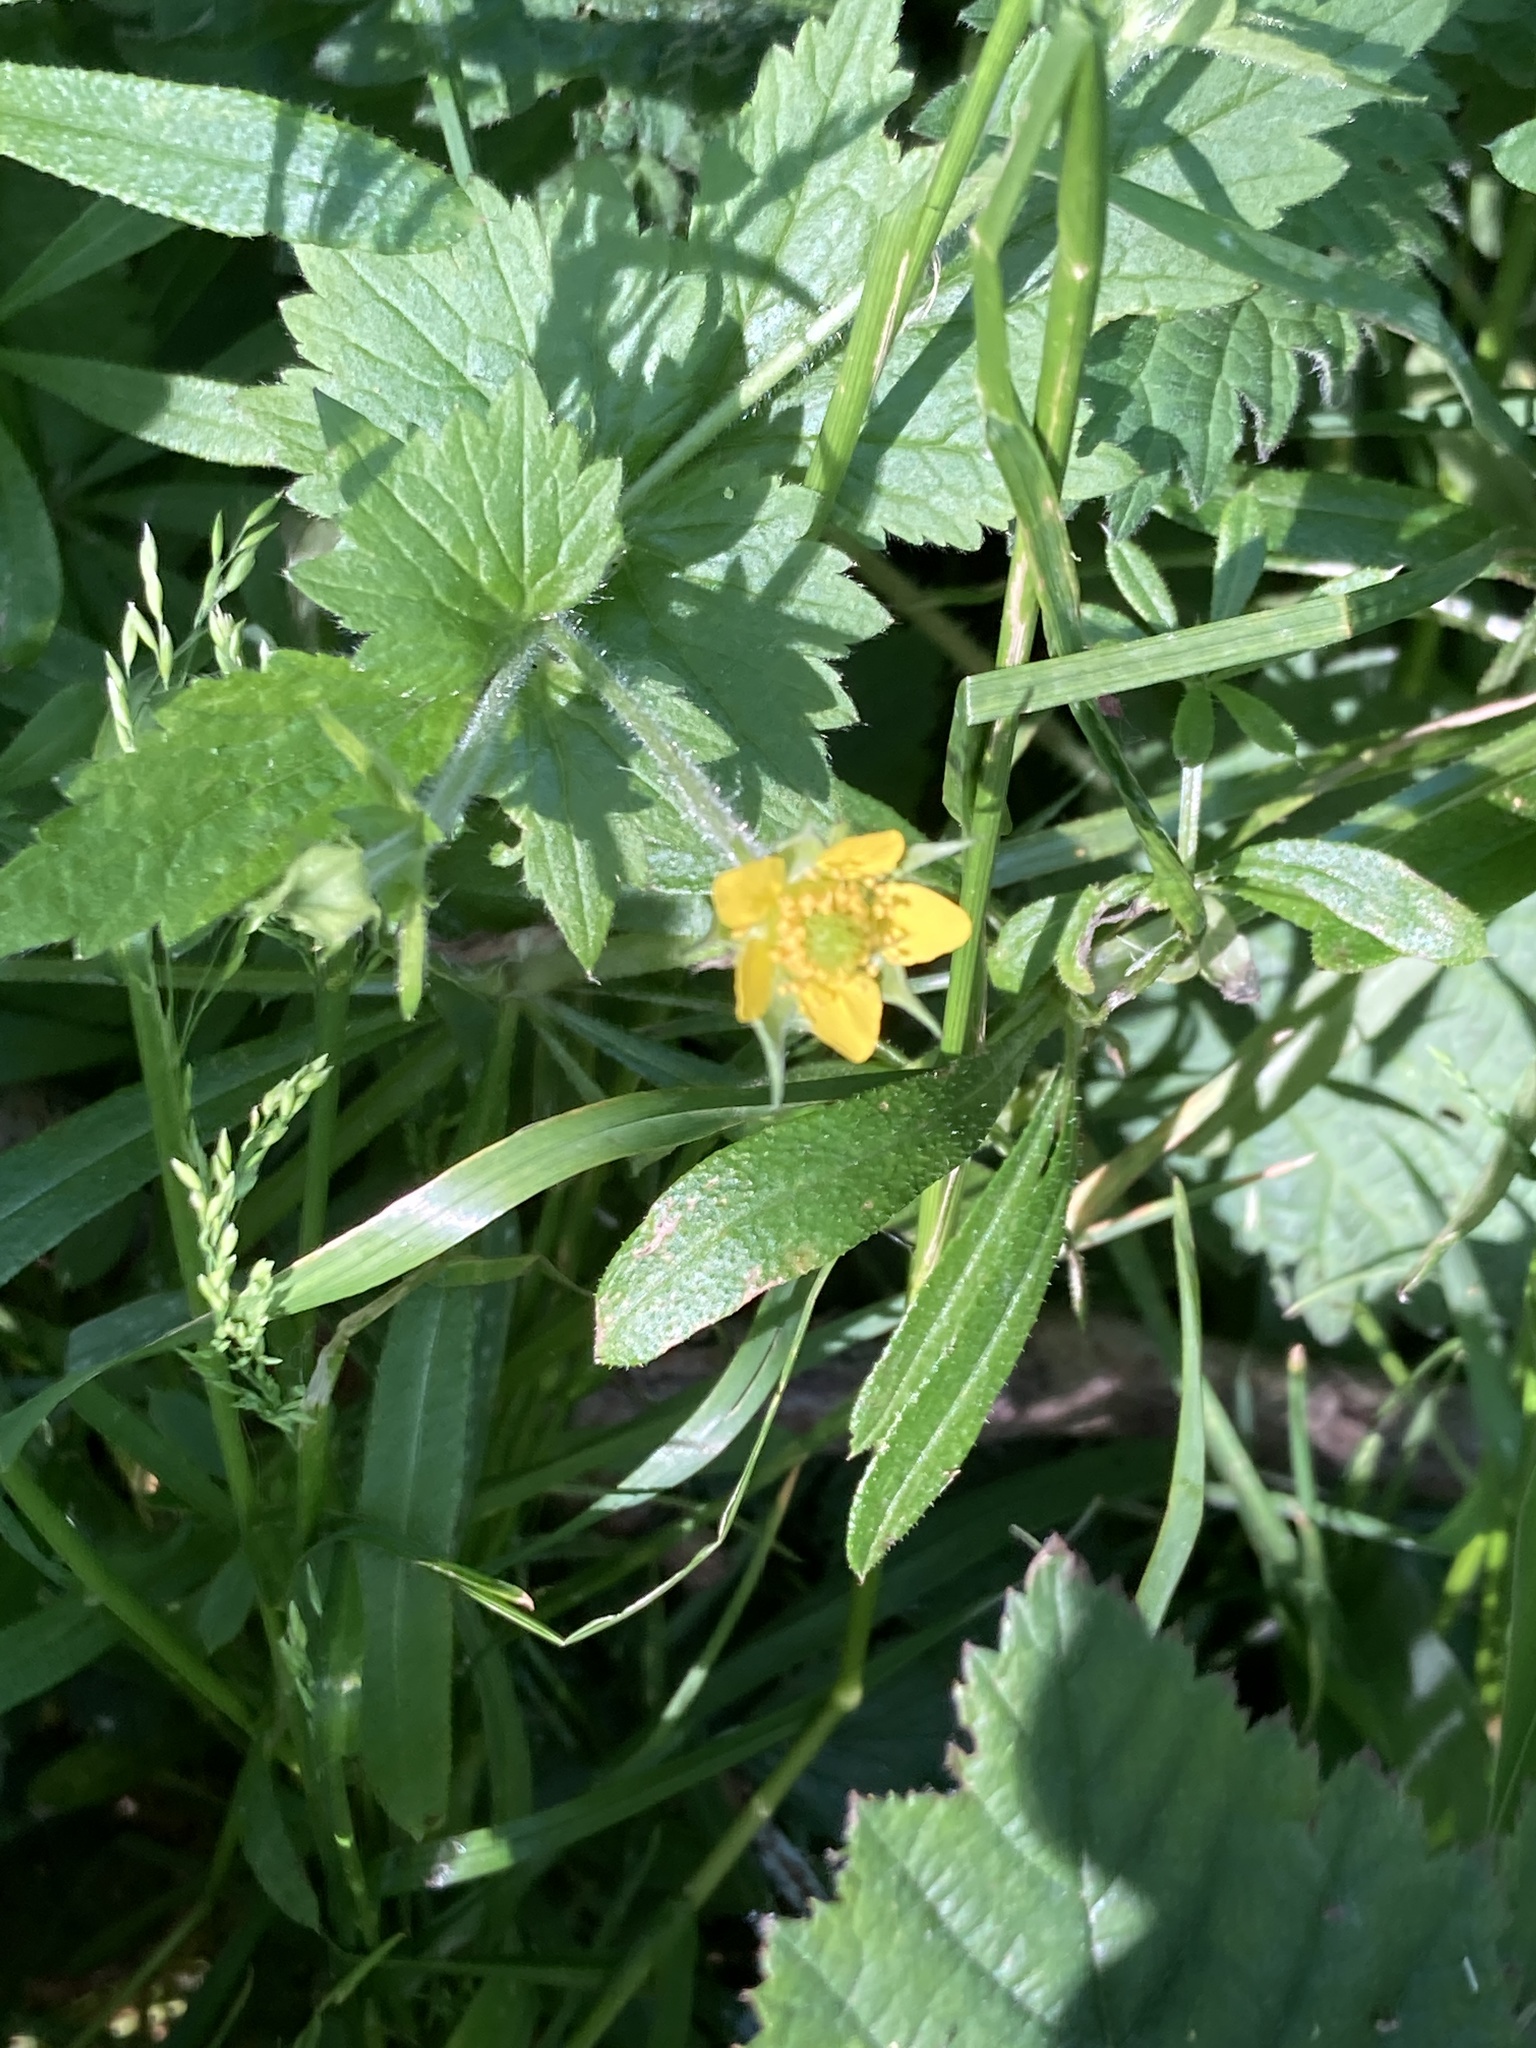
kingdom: Plantae
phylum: Tracheophyta
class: Magnoliopsida
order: Rosales
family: Rosaceae
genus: Geum
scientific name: Geum urbanum
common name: Wood avens
